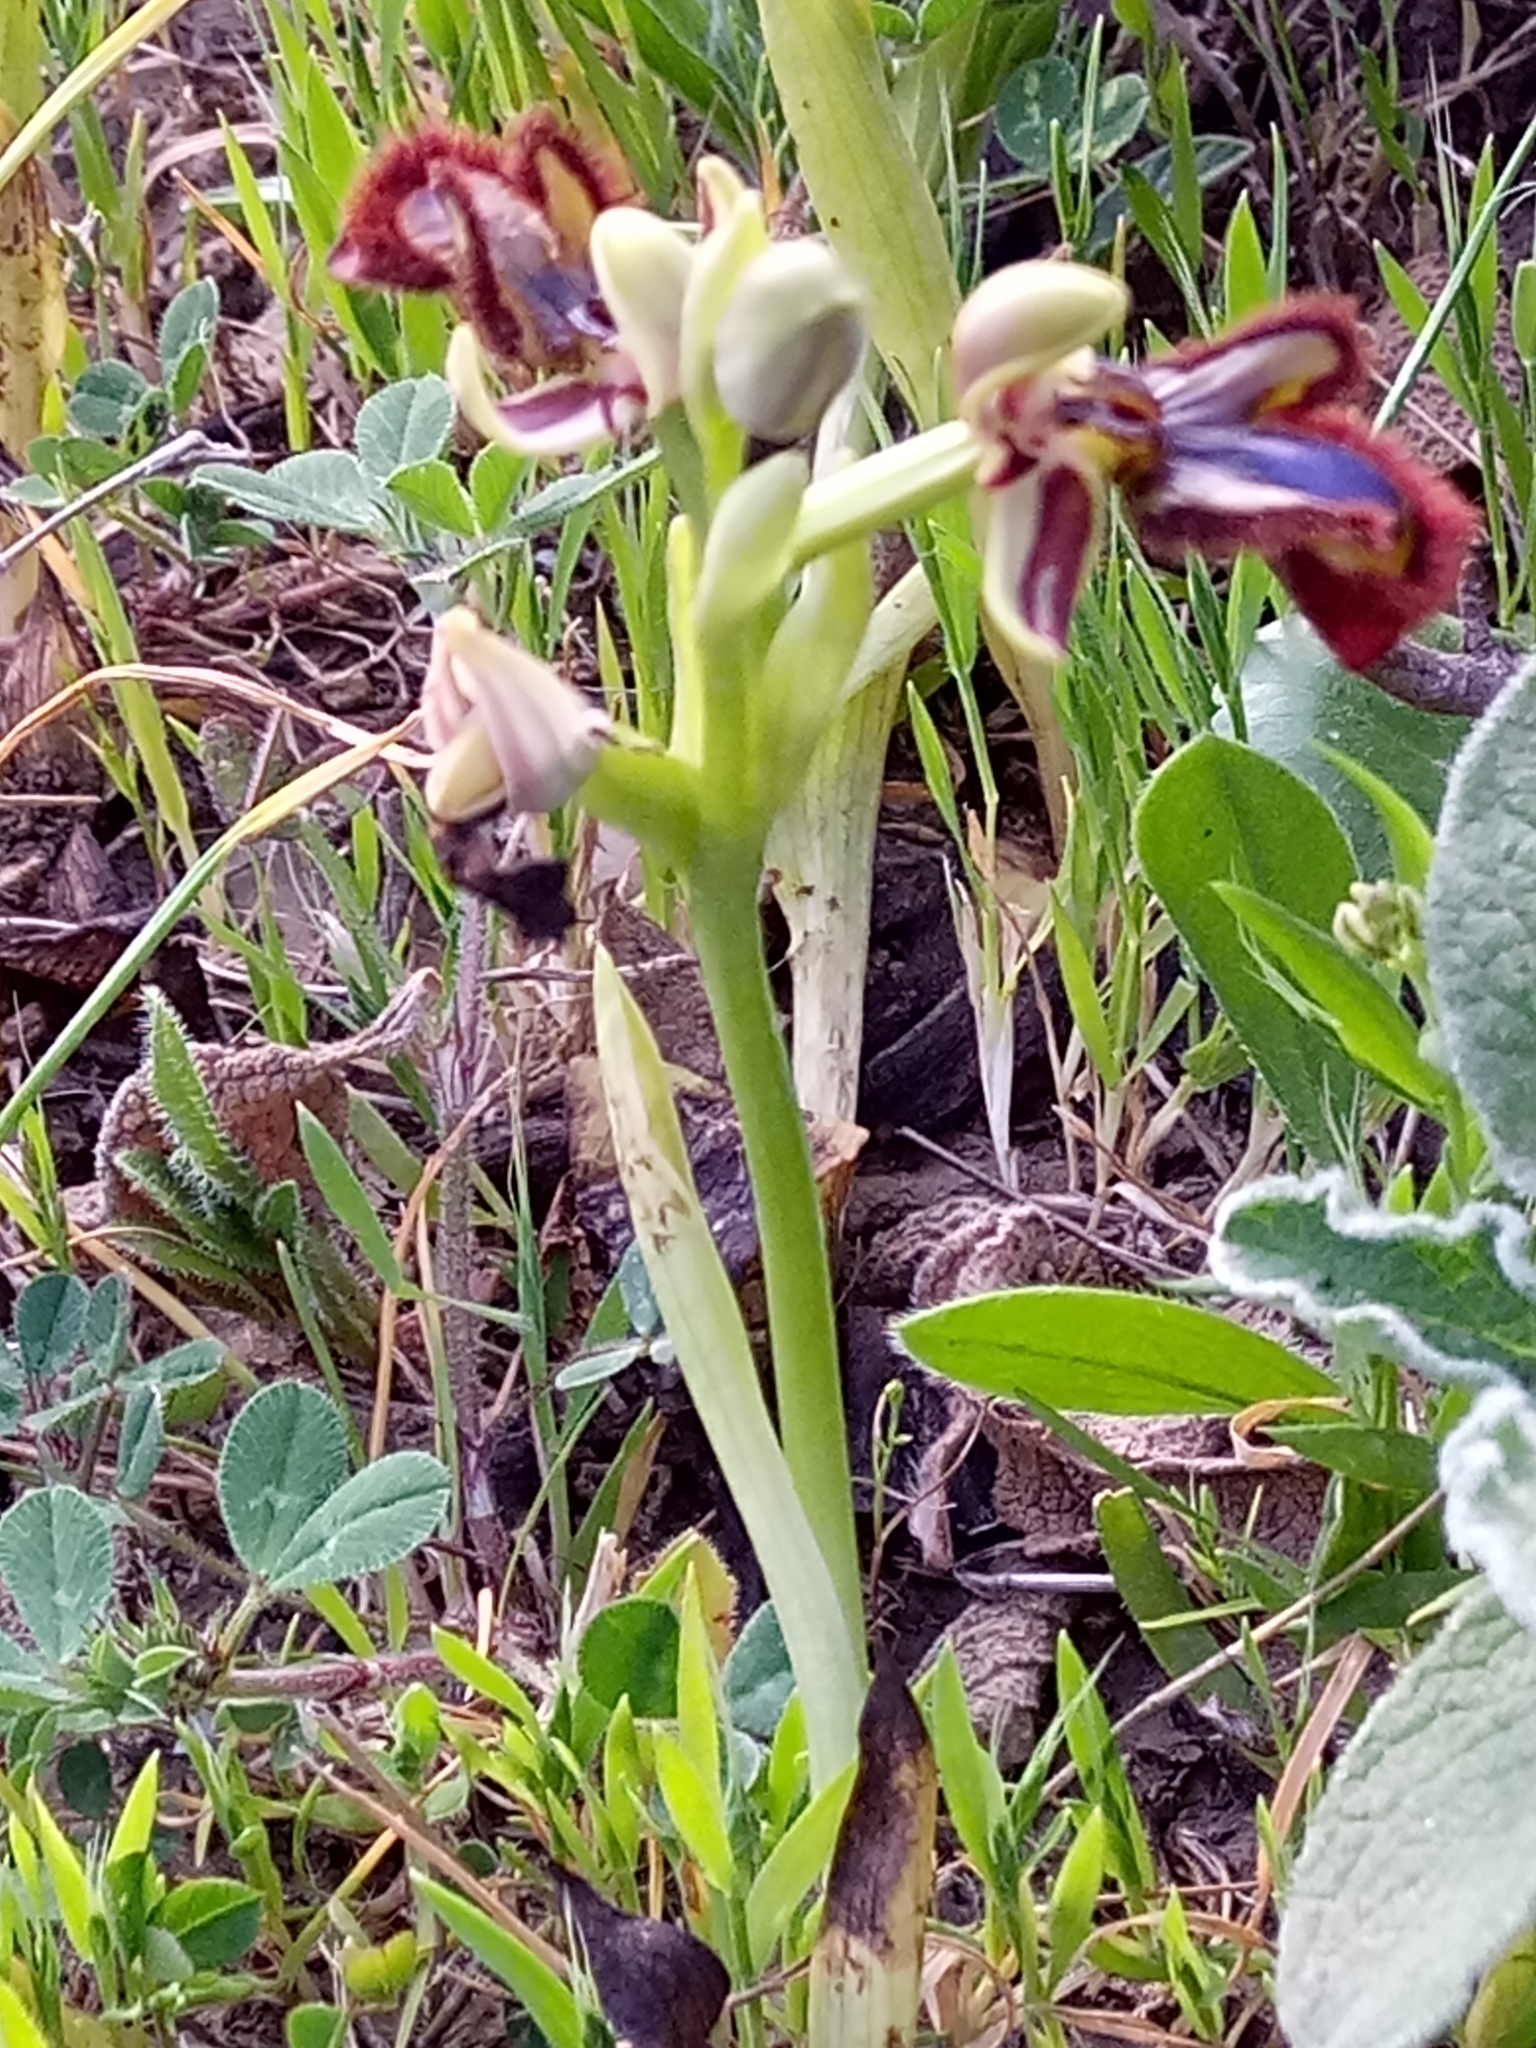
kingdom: Plantae
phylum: Tracheophyta
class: Liliopsida
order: Asparagales
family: Orchidaceae
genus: Ophrys
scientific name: Ophrys speculum
